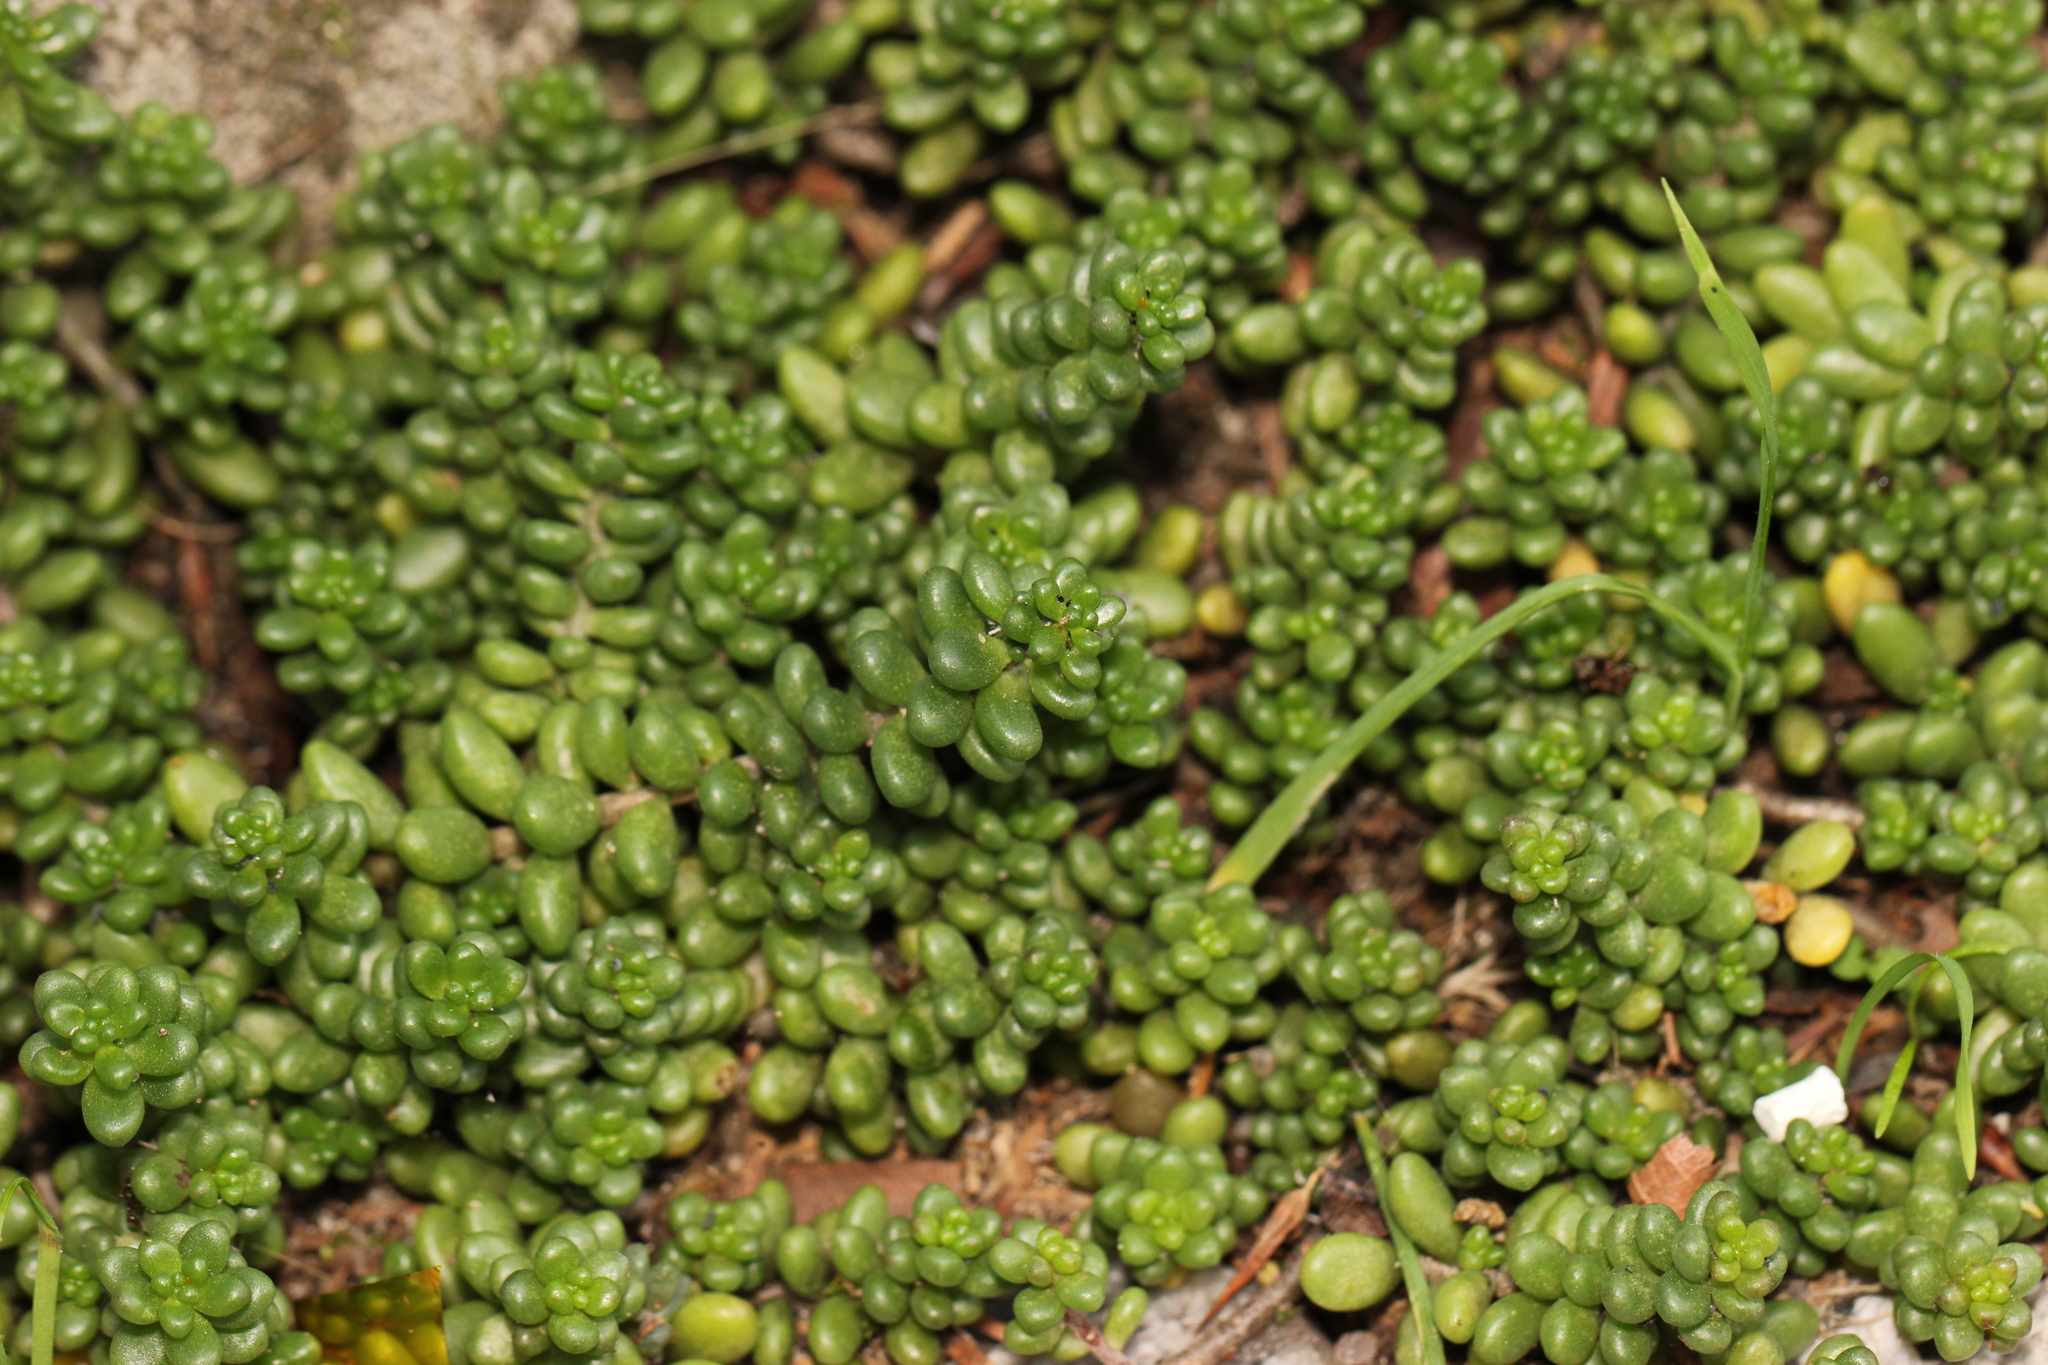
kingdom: Plantae
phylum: Tracheophyta
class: Magnoliopsida
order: Saxifragales
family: Crassulaceae
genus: Sedum
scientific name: Sedum album
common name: White stonecrop
